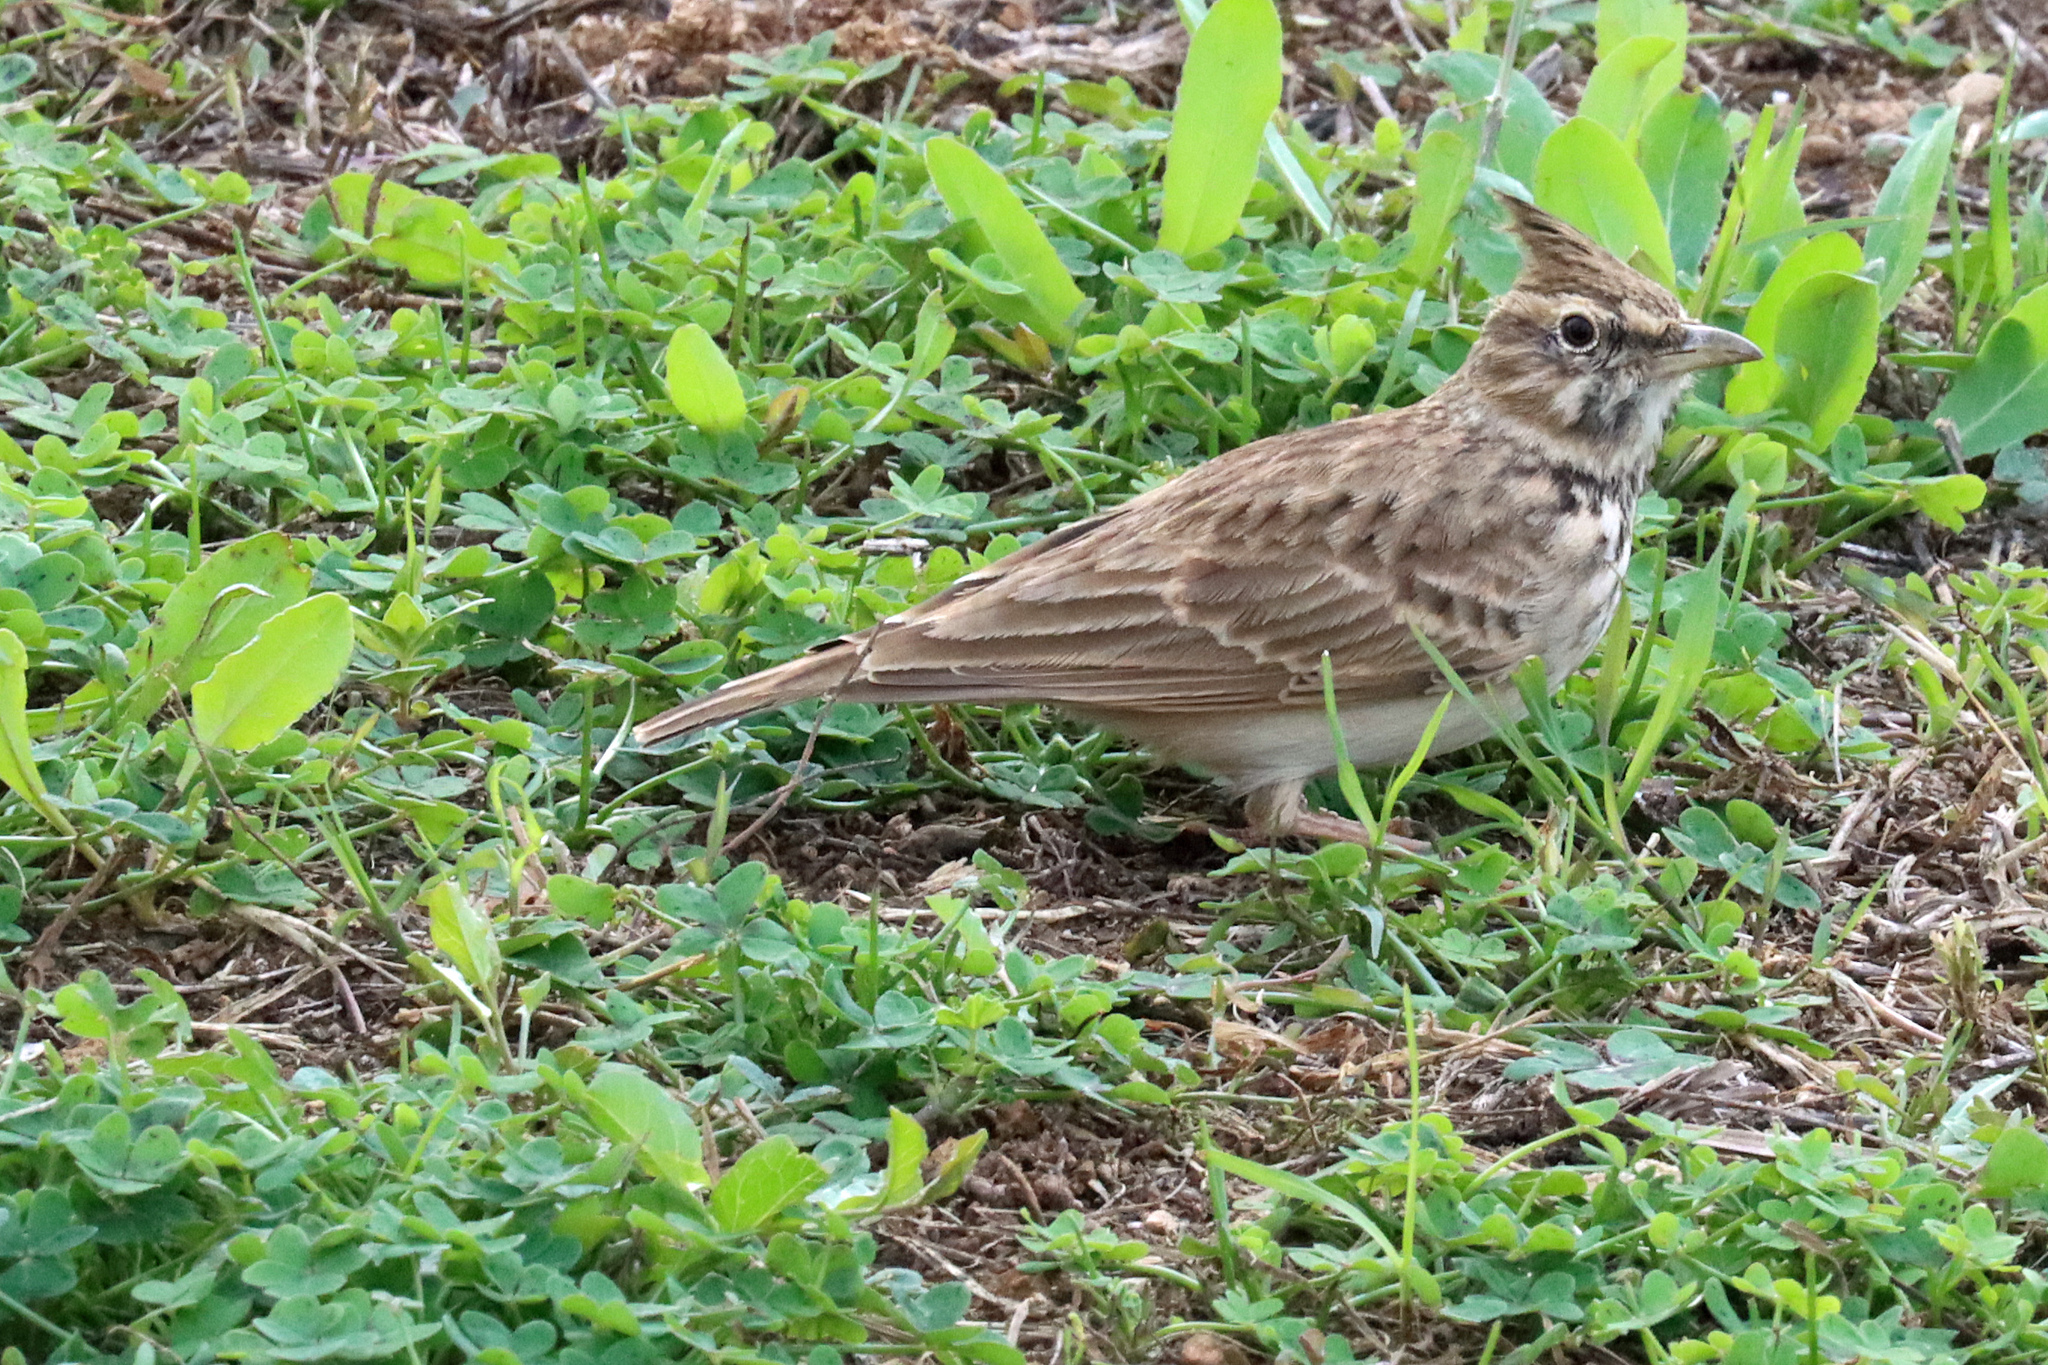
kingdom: Animalia
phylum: Chordata
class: Aves
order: Passeriformes
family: Alaudidae
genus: Galerida
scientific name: Galerida cristata
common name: Crested lark
